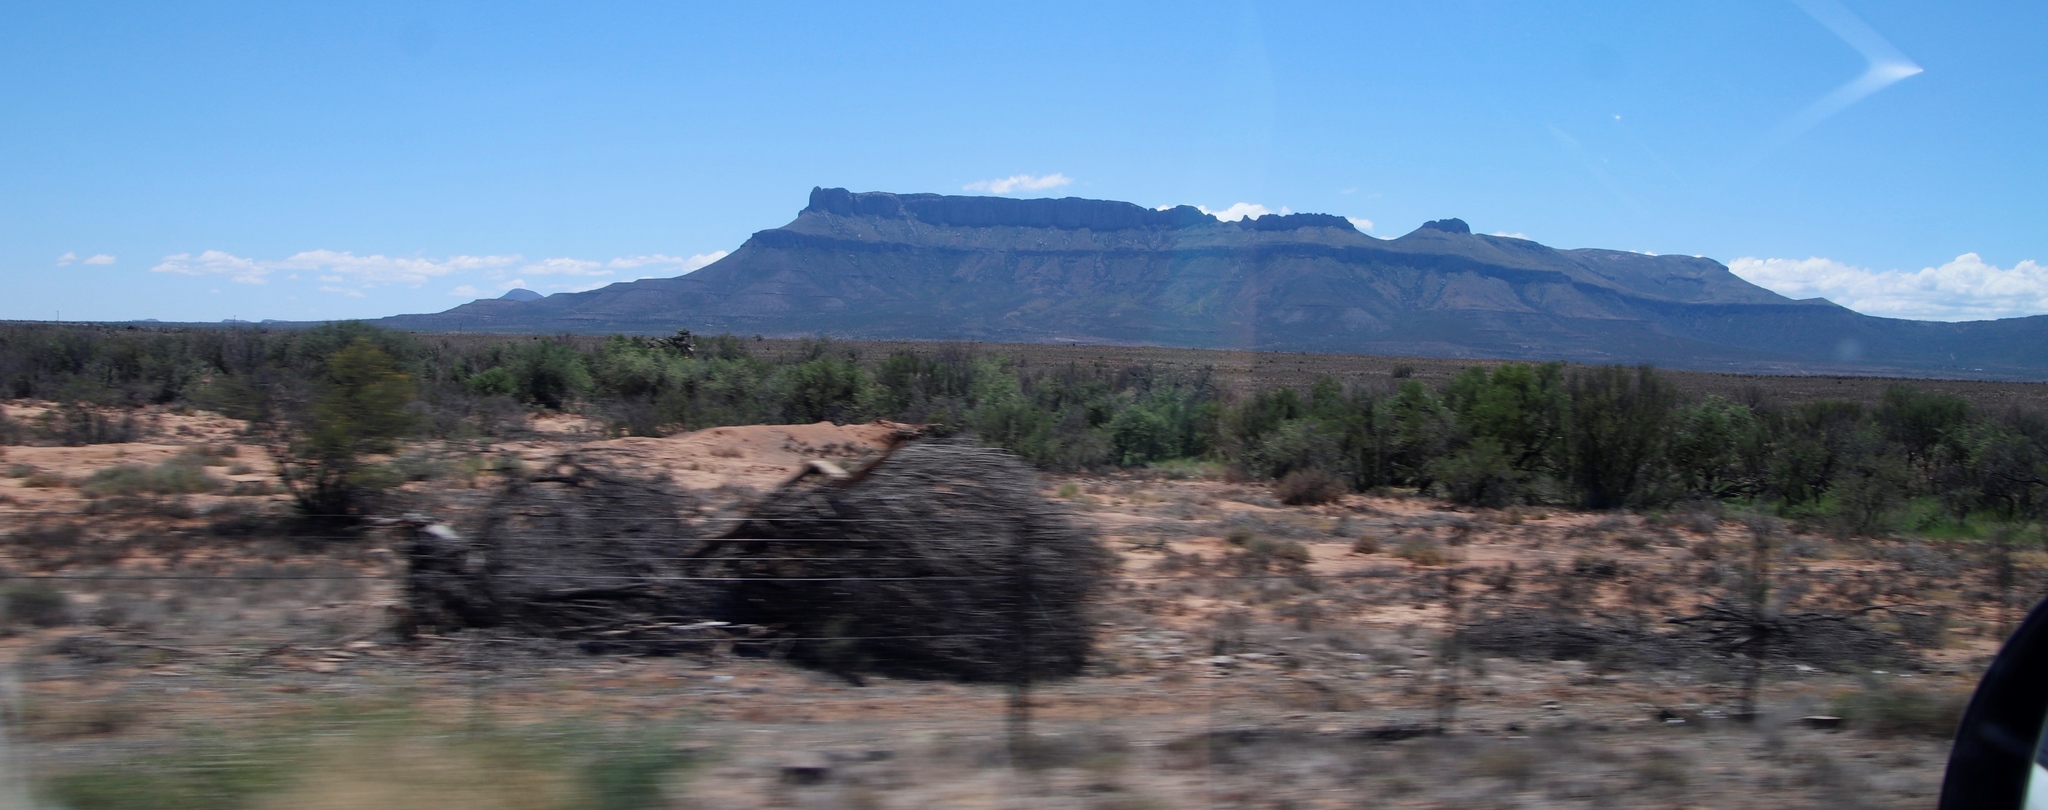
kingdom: Plantae
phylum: Tracheophyta
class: Magnoliopsida
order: Fabales
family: Fabaceae
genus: Vachellia
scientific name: Vachellia karroo
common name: Sweet thorn
